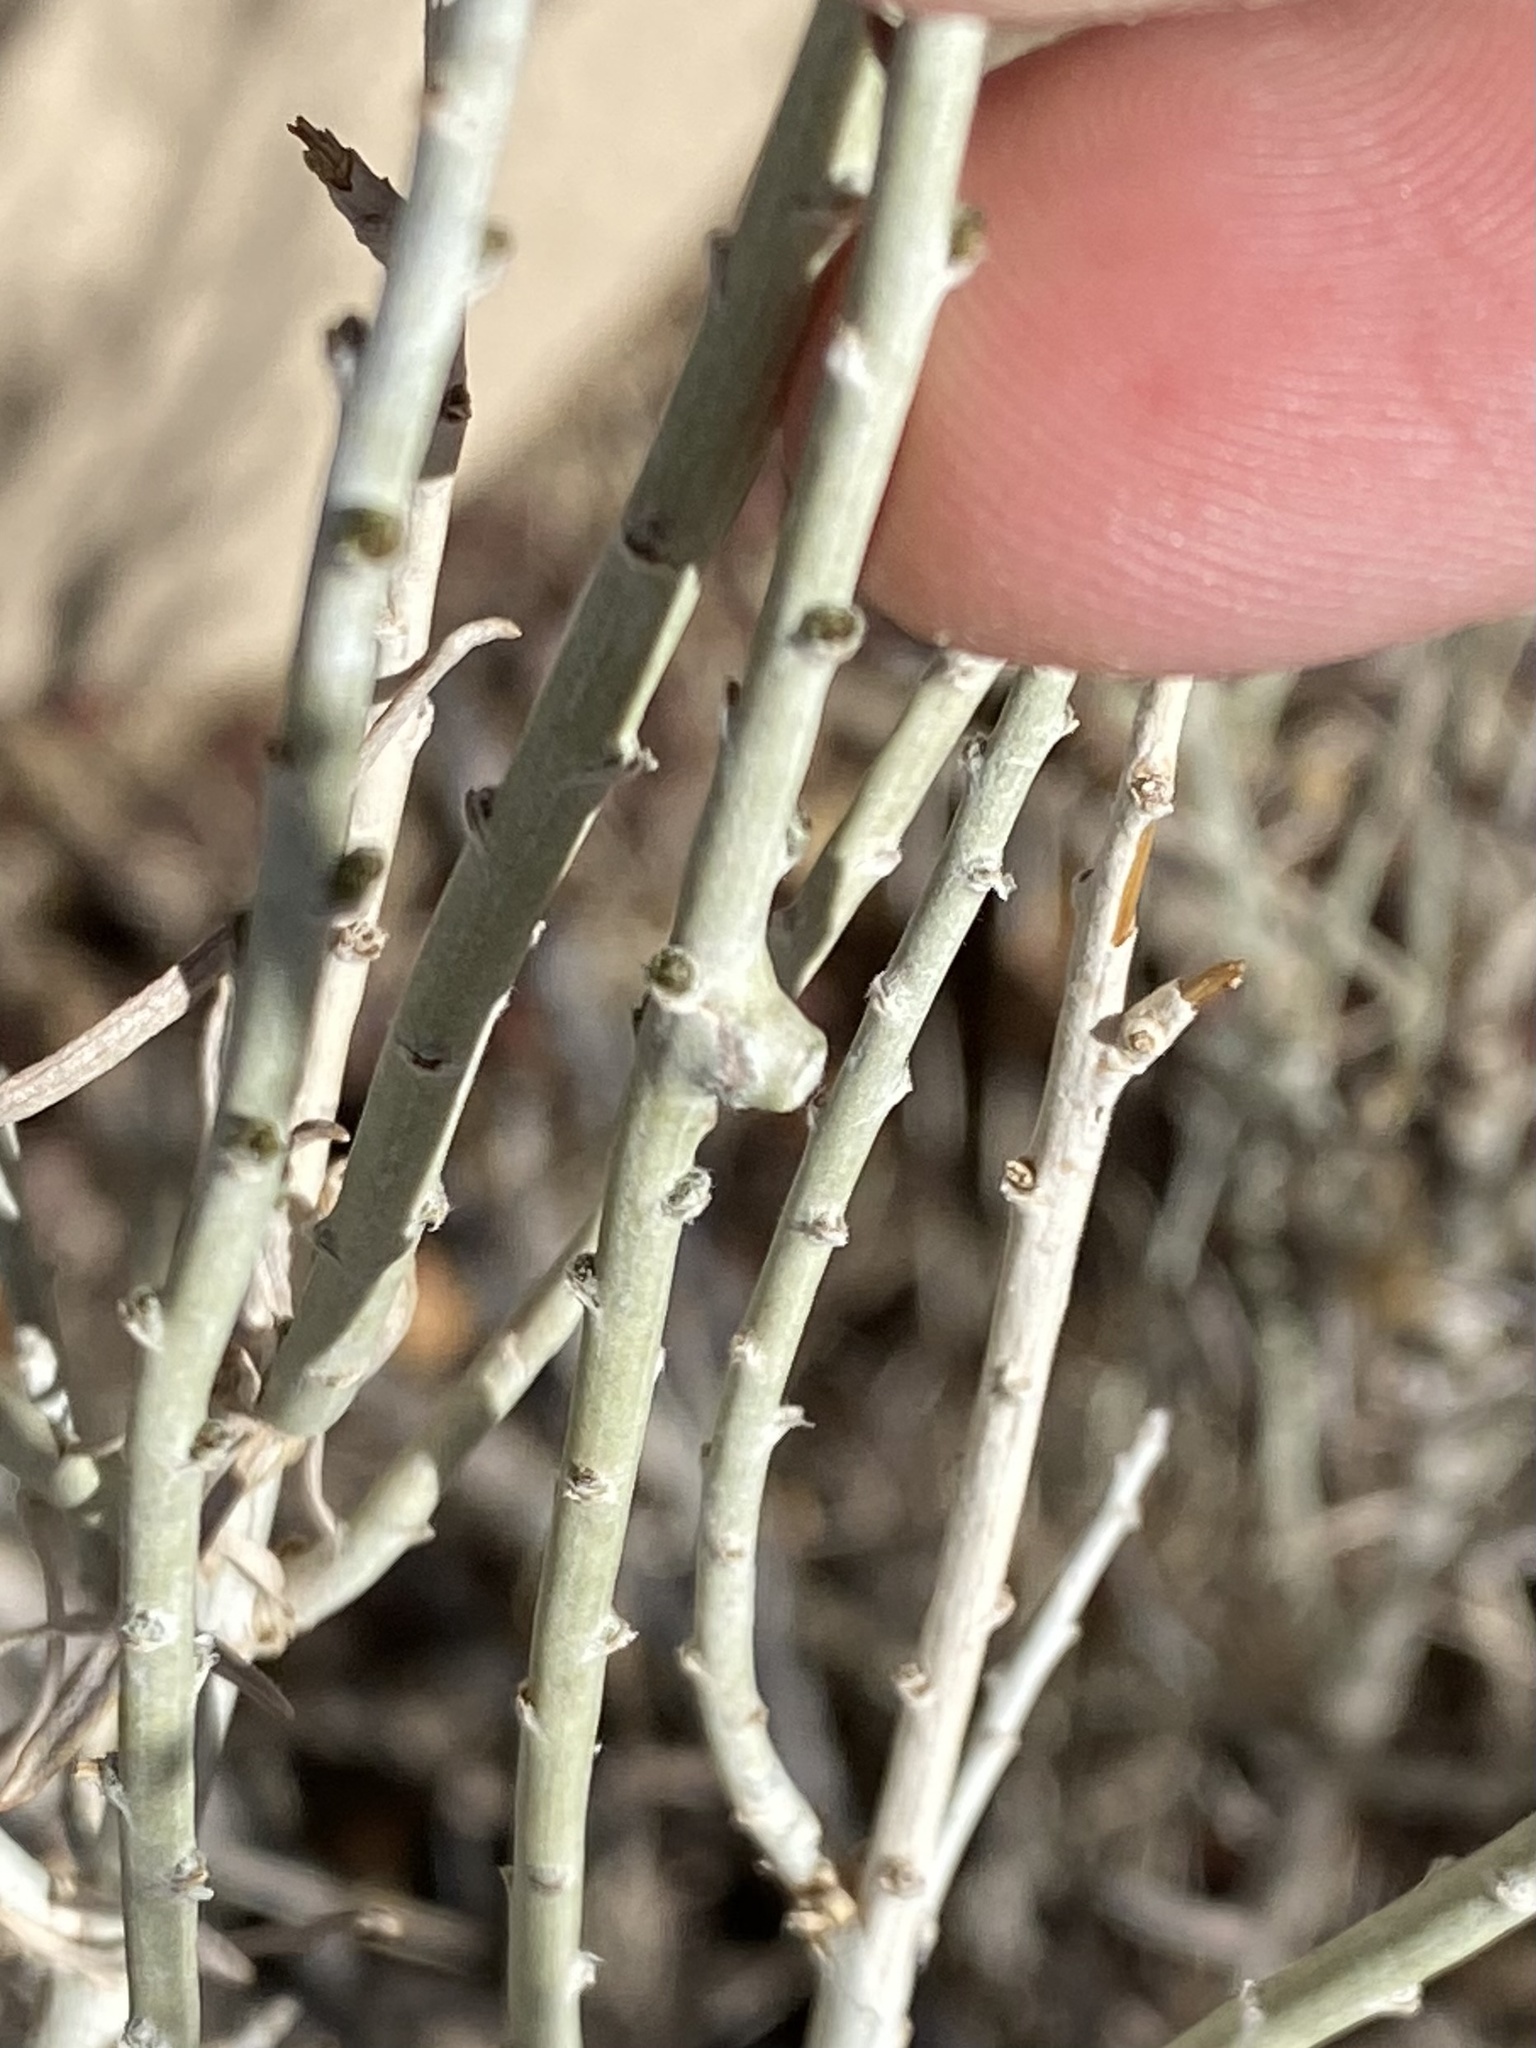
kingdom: Animalia
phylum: Arthropoda
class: Insecta
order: Diptera
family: Cecidomyiidae
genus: Rhopalomyia
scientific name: Rhopalomyia chrysothamni
